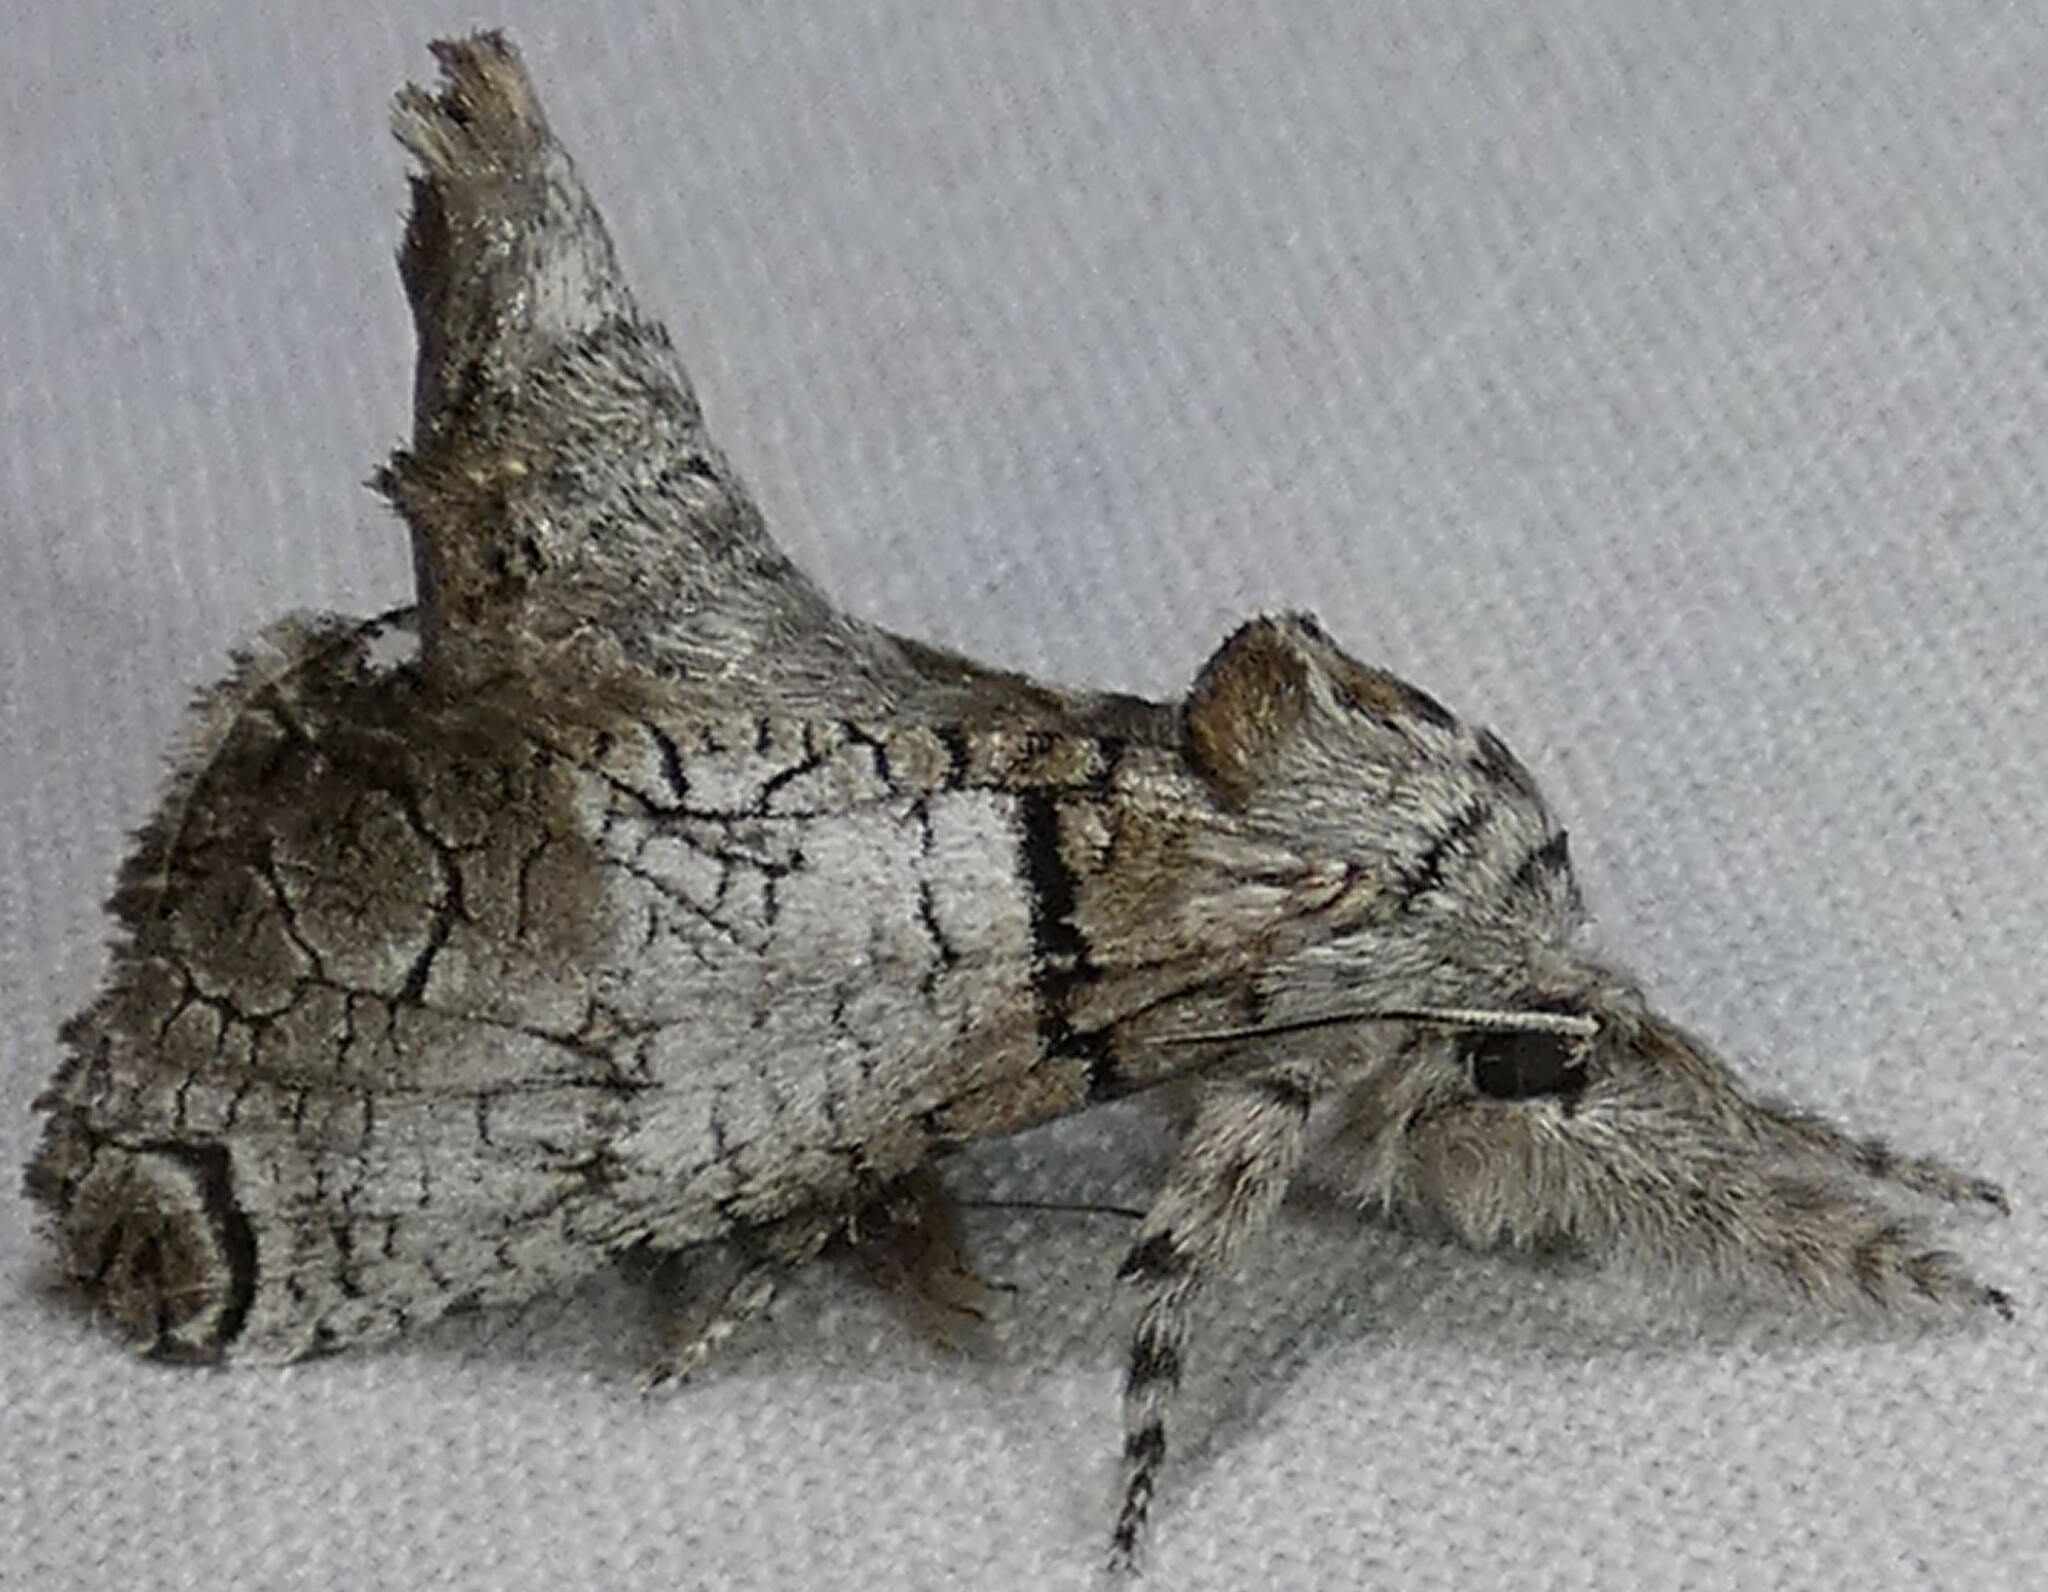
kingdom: Animalia
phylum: Arthropoda
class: Insecta
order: Lepidoptera
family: Cossidae
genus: Inguromorpha
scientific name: Inguromorpha basalis
